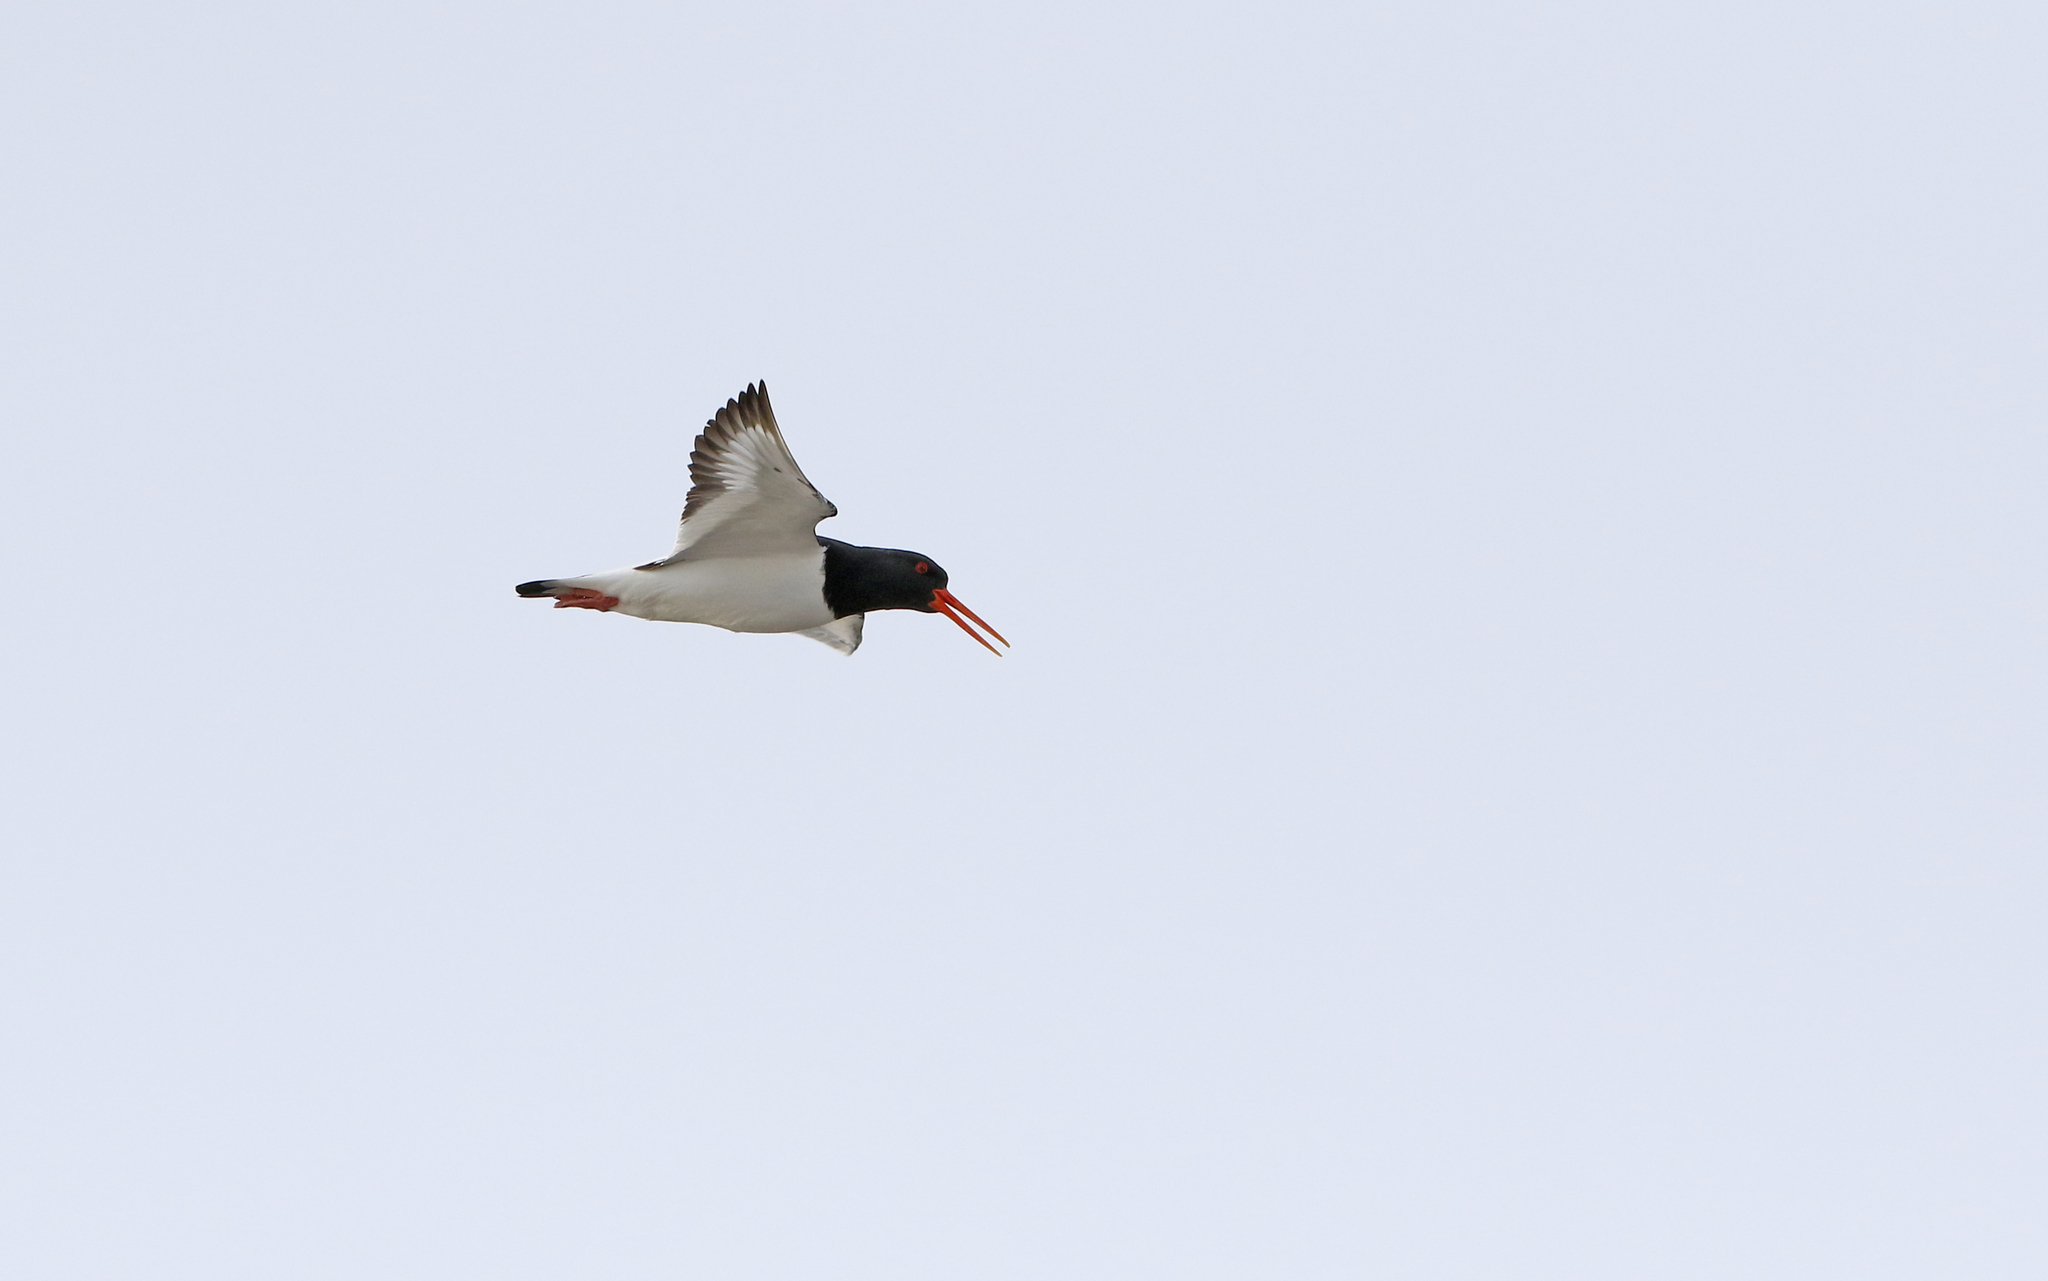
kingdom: Animalia
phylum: Chordata
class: Aves
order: Charadriiformes
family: Haematopodidae
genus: Haematopus
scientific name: Haematopus ostralegus
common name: Eurasian oystercatcher
